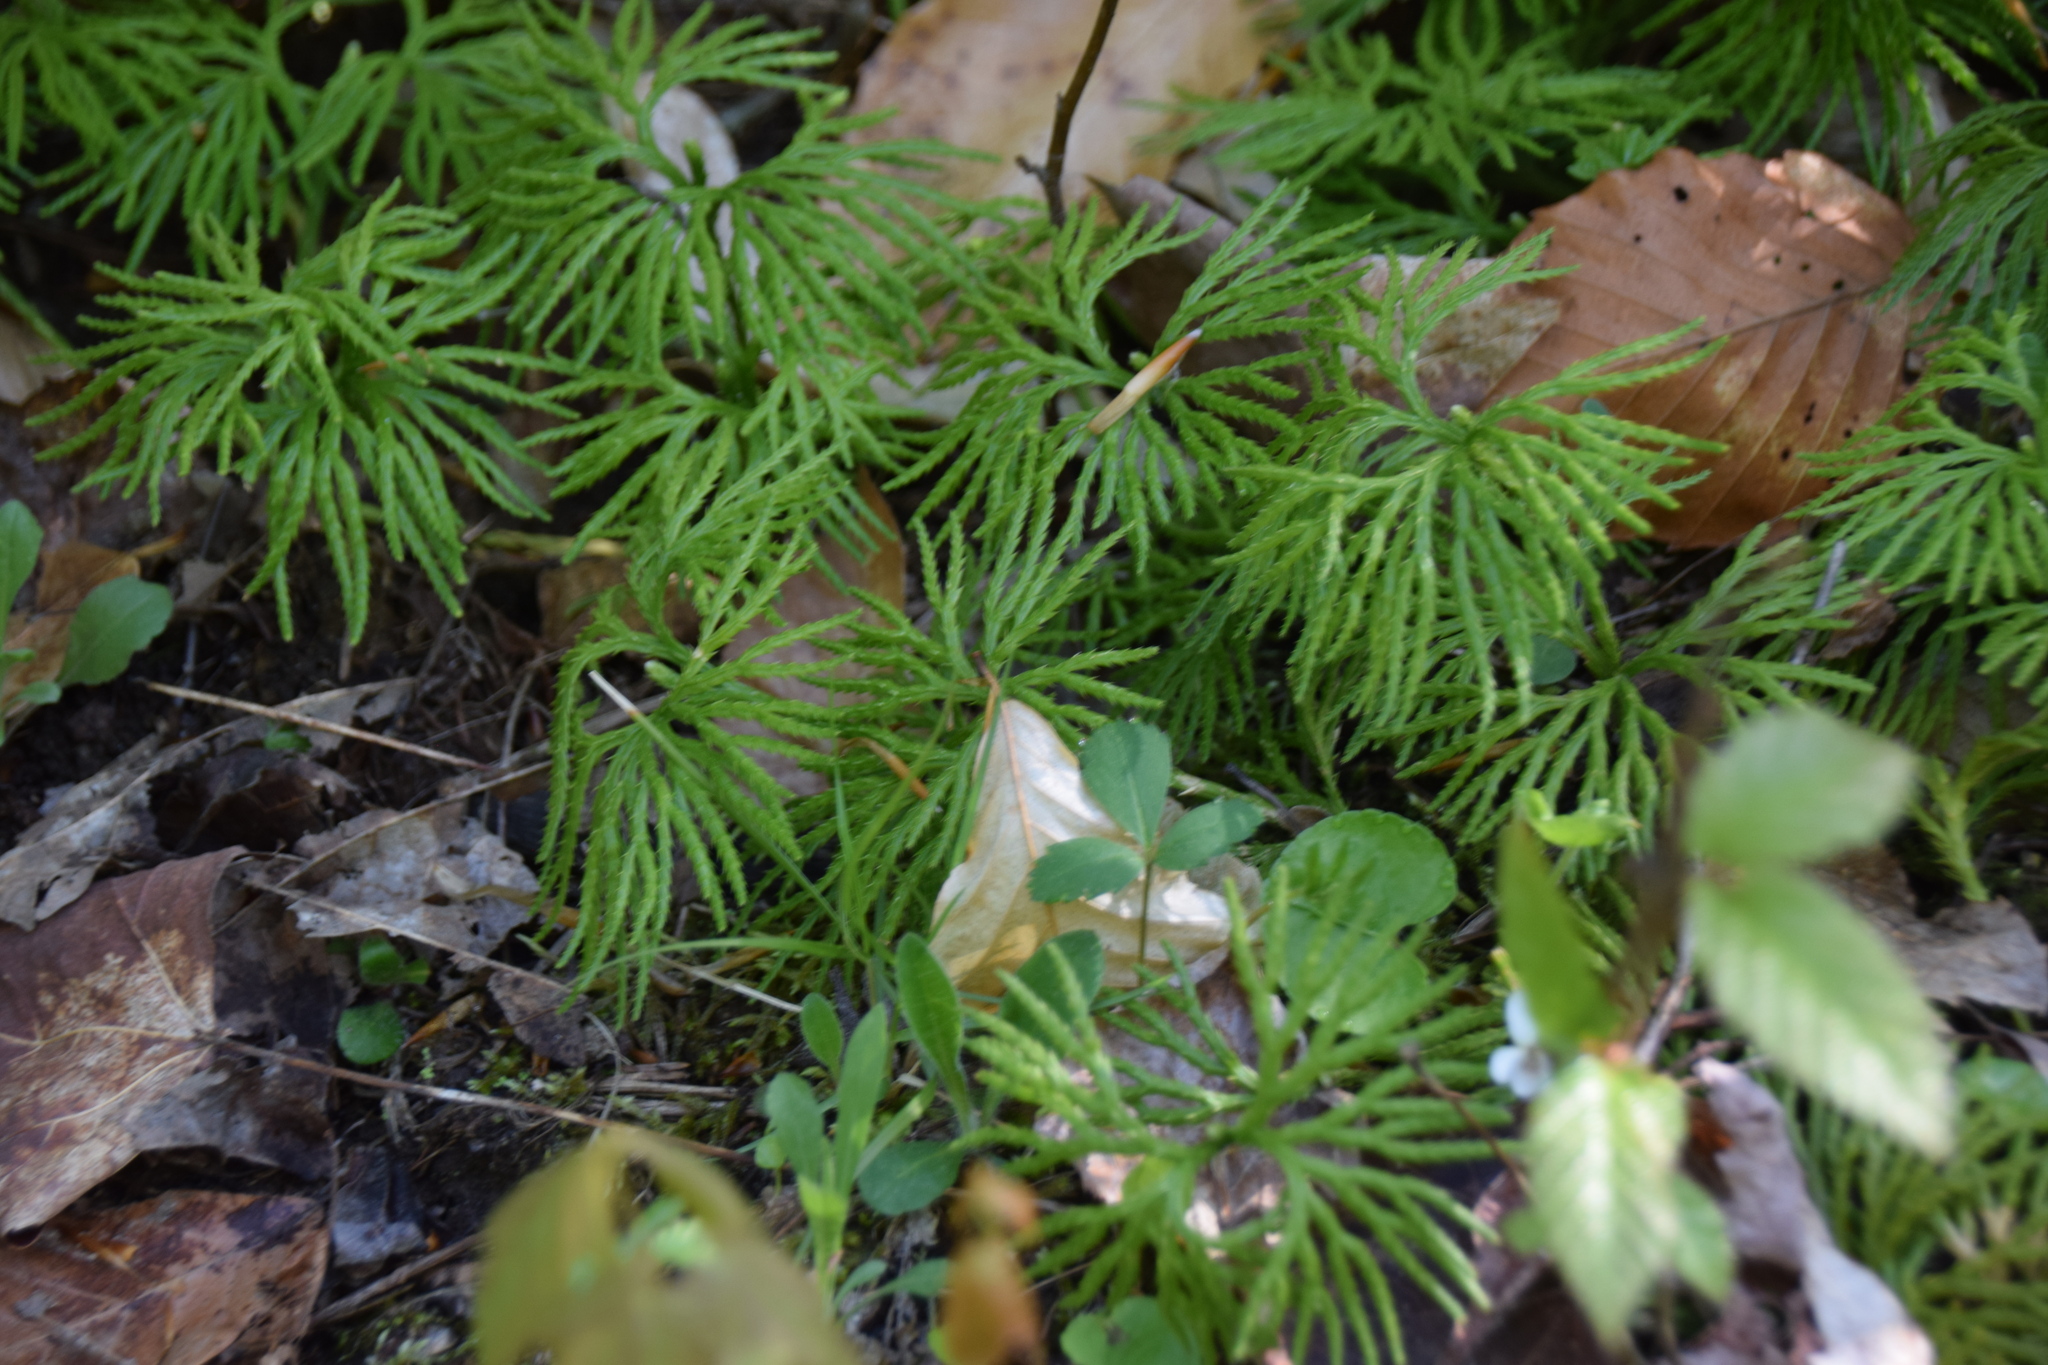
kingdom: Plantae
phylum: Tracheophyta
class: Lycopodiopsida
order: Lycopodiales
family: Lycopodiaceae
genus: Diphasiastrum
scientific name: Diphasiastrum digitatum
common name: Southern running-pine
